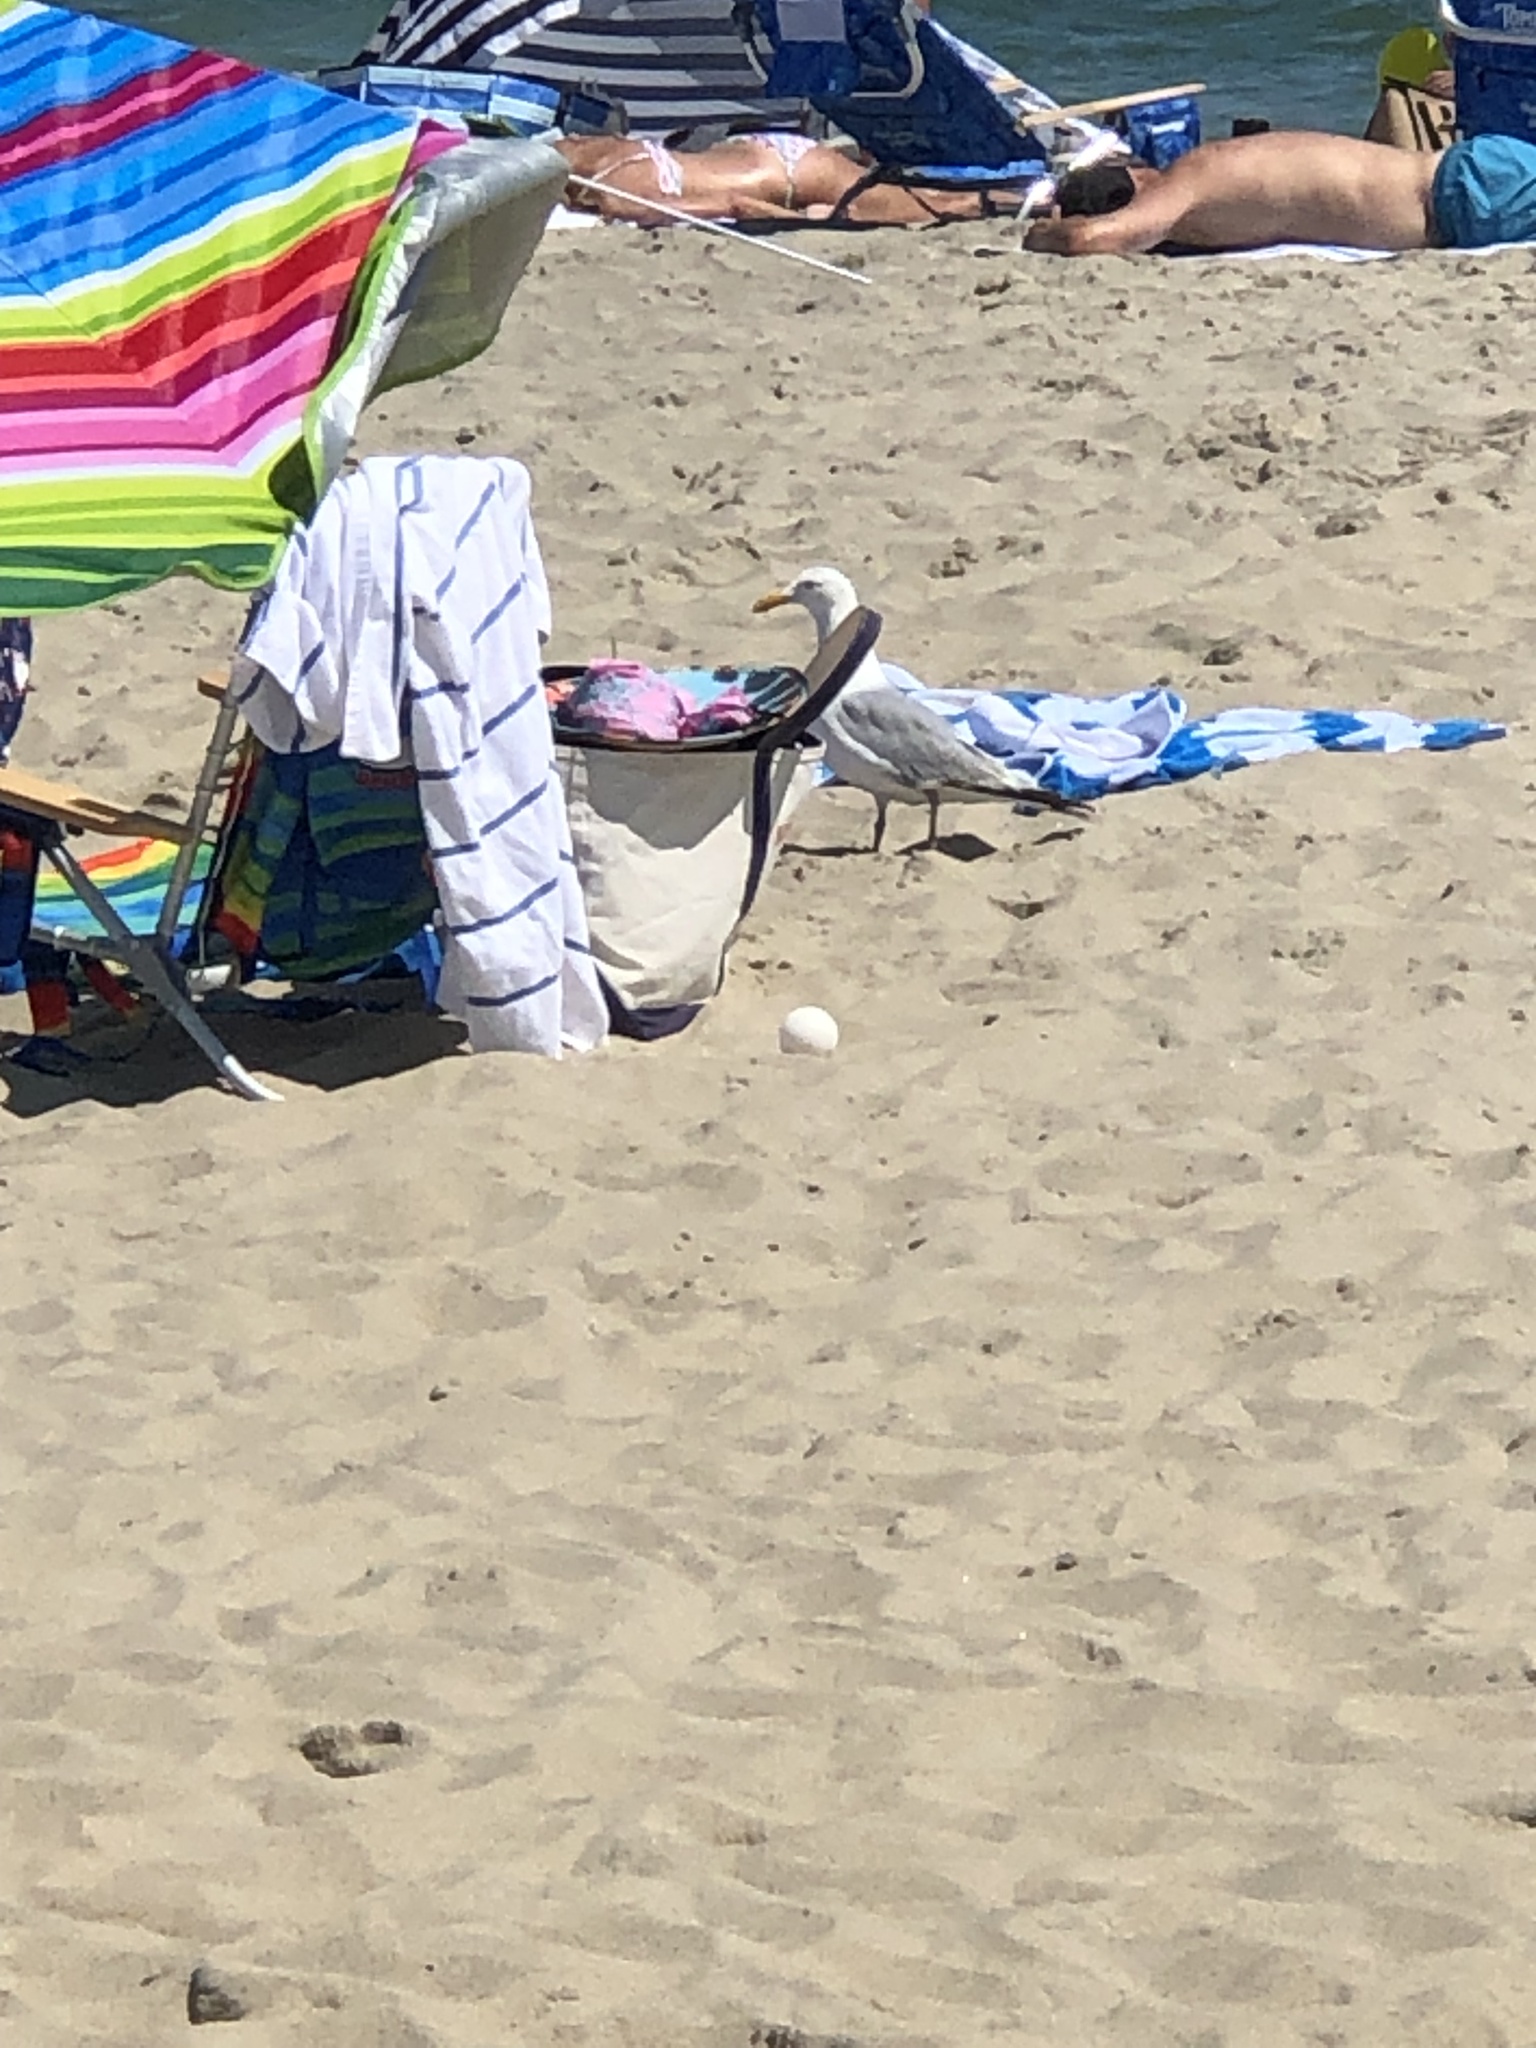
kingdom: Animalia
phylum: Chordata
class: Aves
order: Charadriiformes
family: Laridae
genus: Larus
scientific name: Larus argentatus
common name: Herring gull
